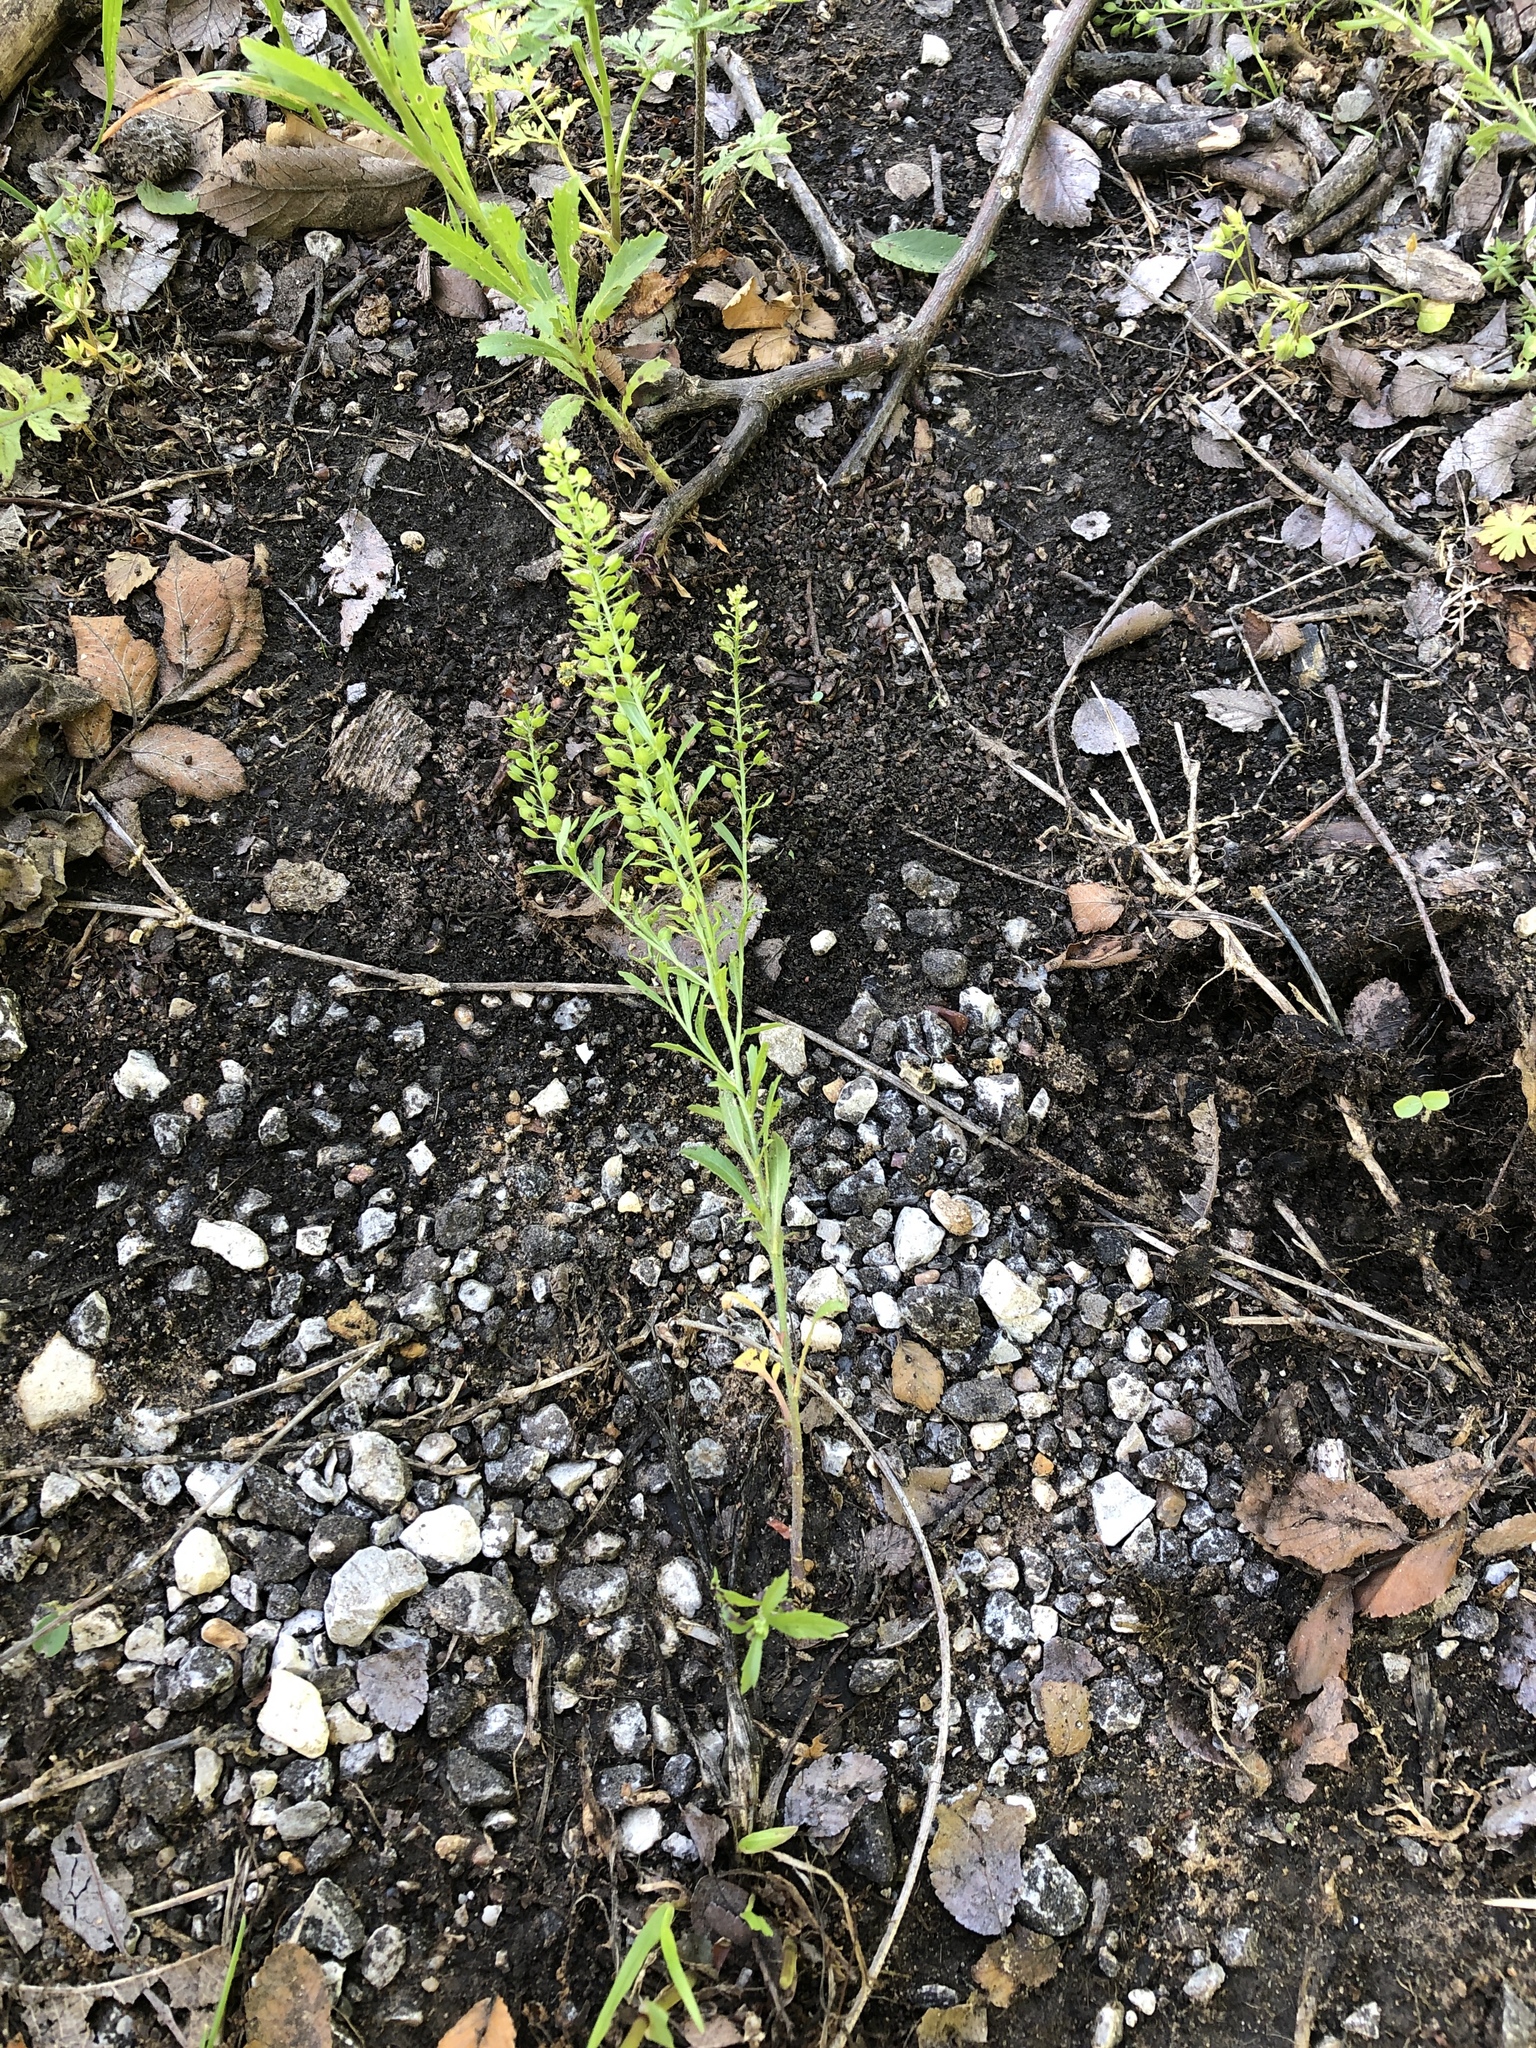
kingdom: Plantae
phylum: Tracheophyta
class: Magnoliopsida
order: Brassicales
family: Brassicaceae
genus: Lepidium
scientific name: Lepidium virginicum
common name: Least pepperwort
